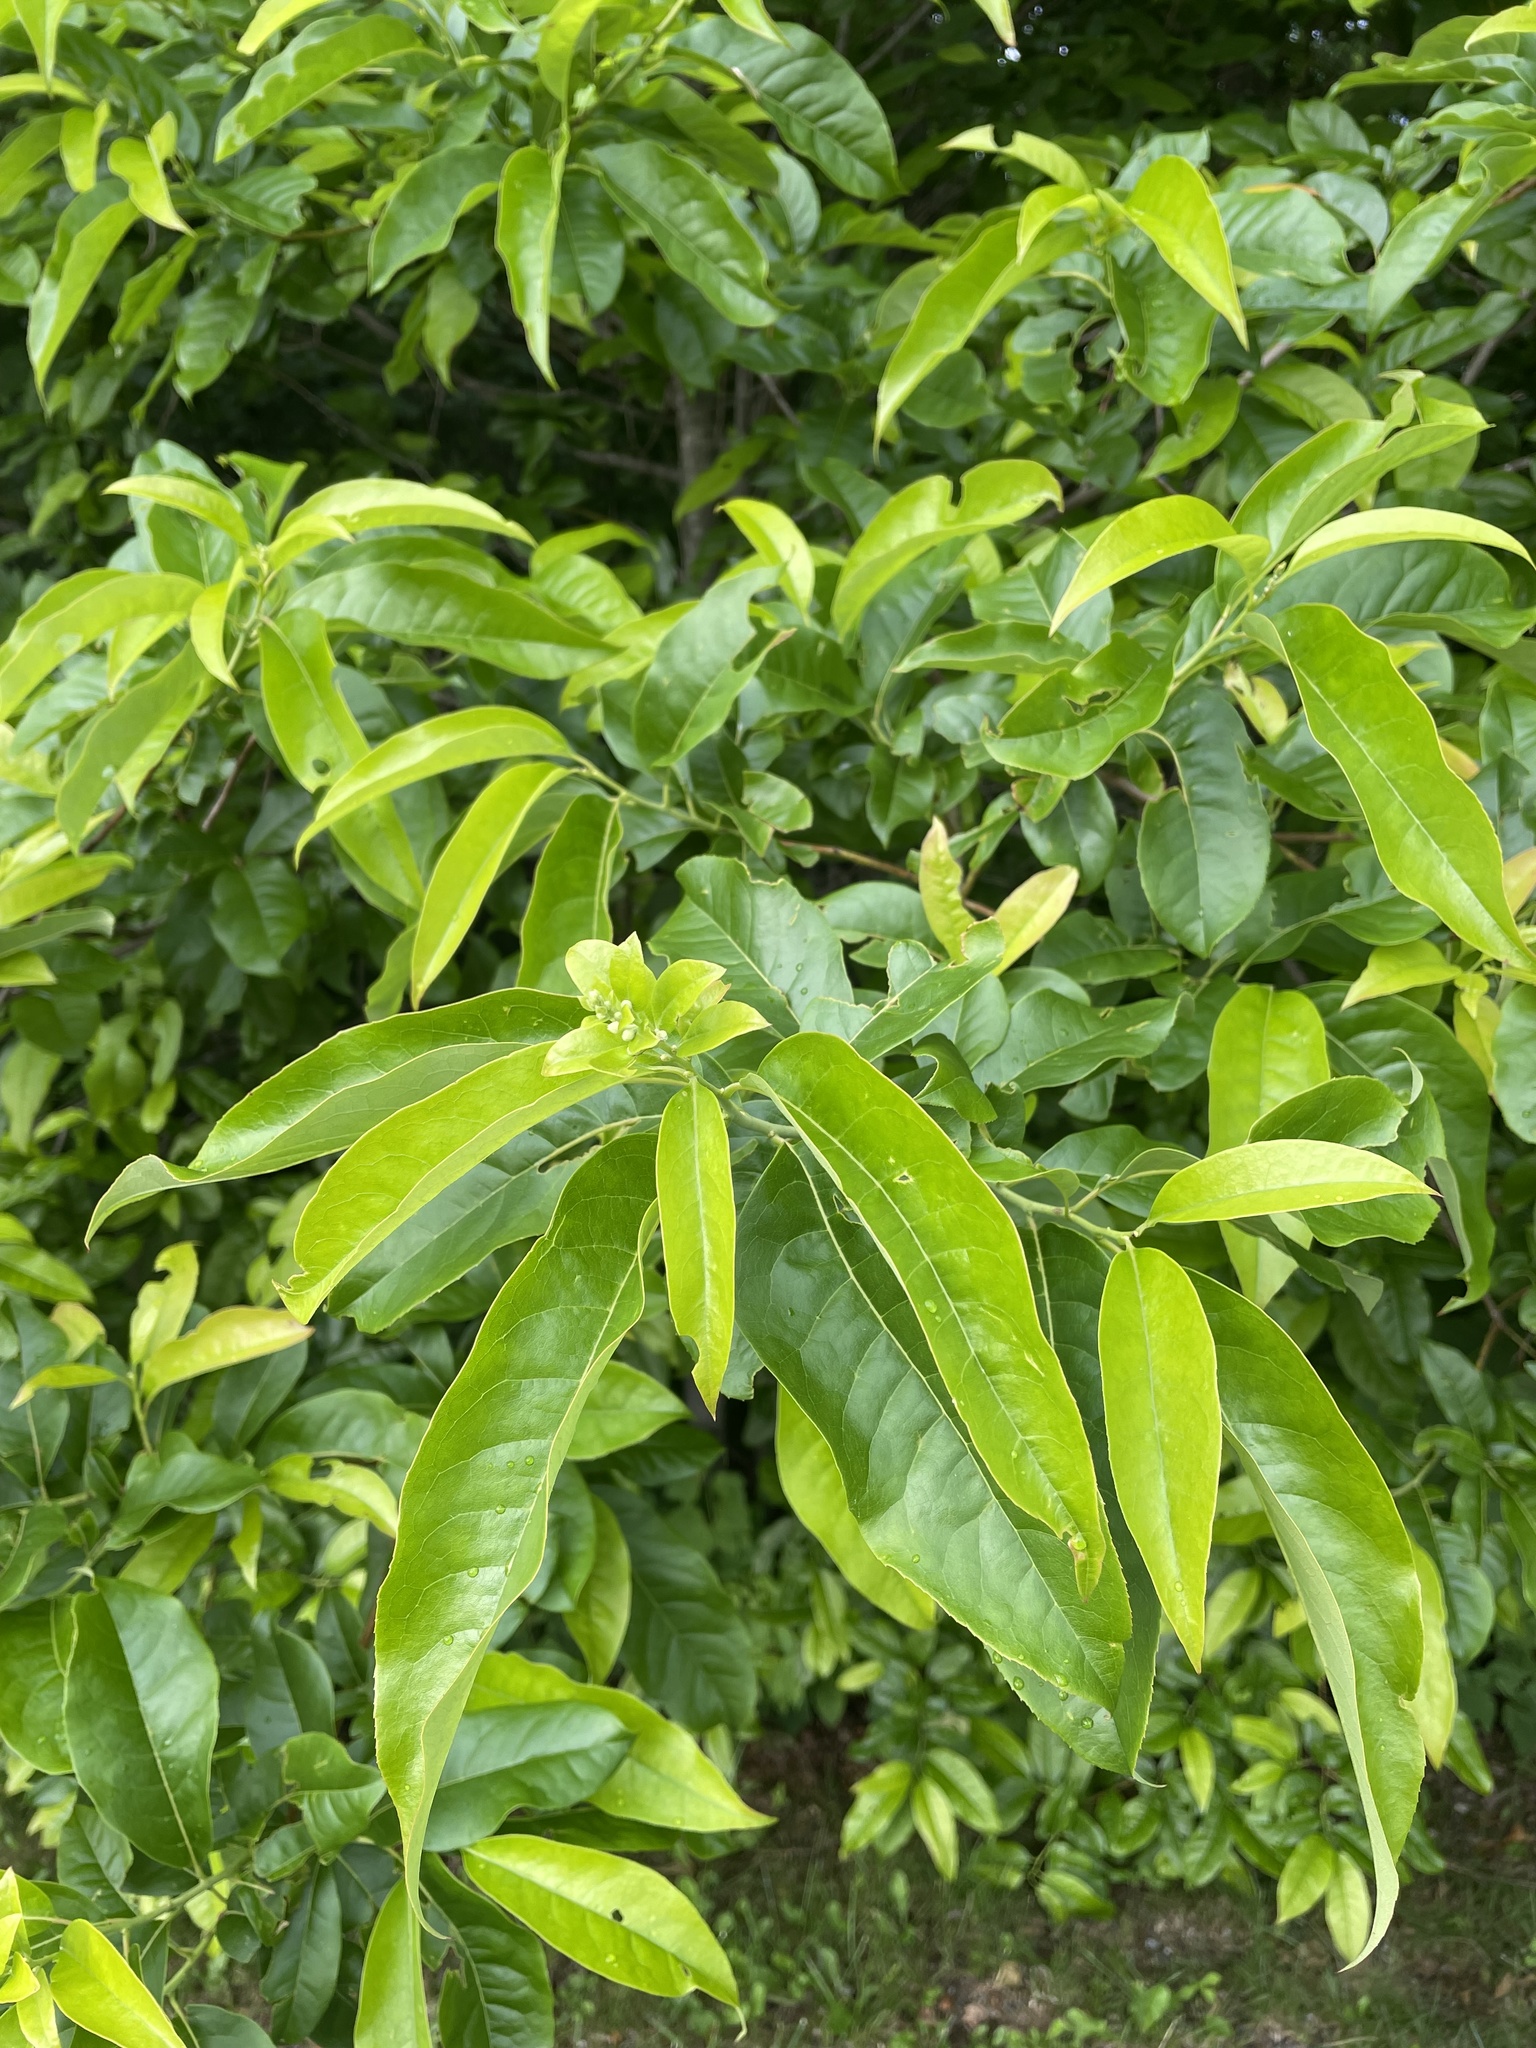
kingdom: Plantae
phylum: Tracheophyta
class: Magnoliopsida
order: Ericales
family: Ericaceae
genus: Oxydendrum
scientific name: Oxydendrum arboreum
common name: Sourwood
